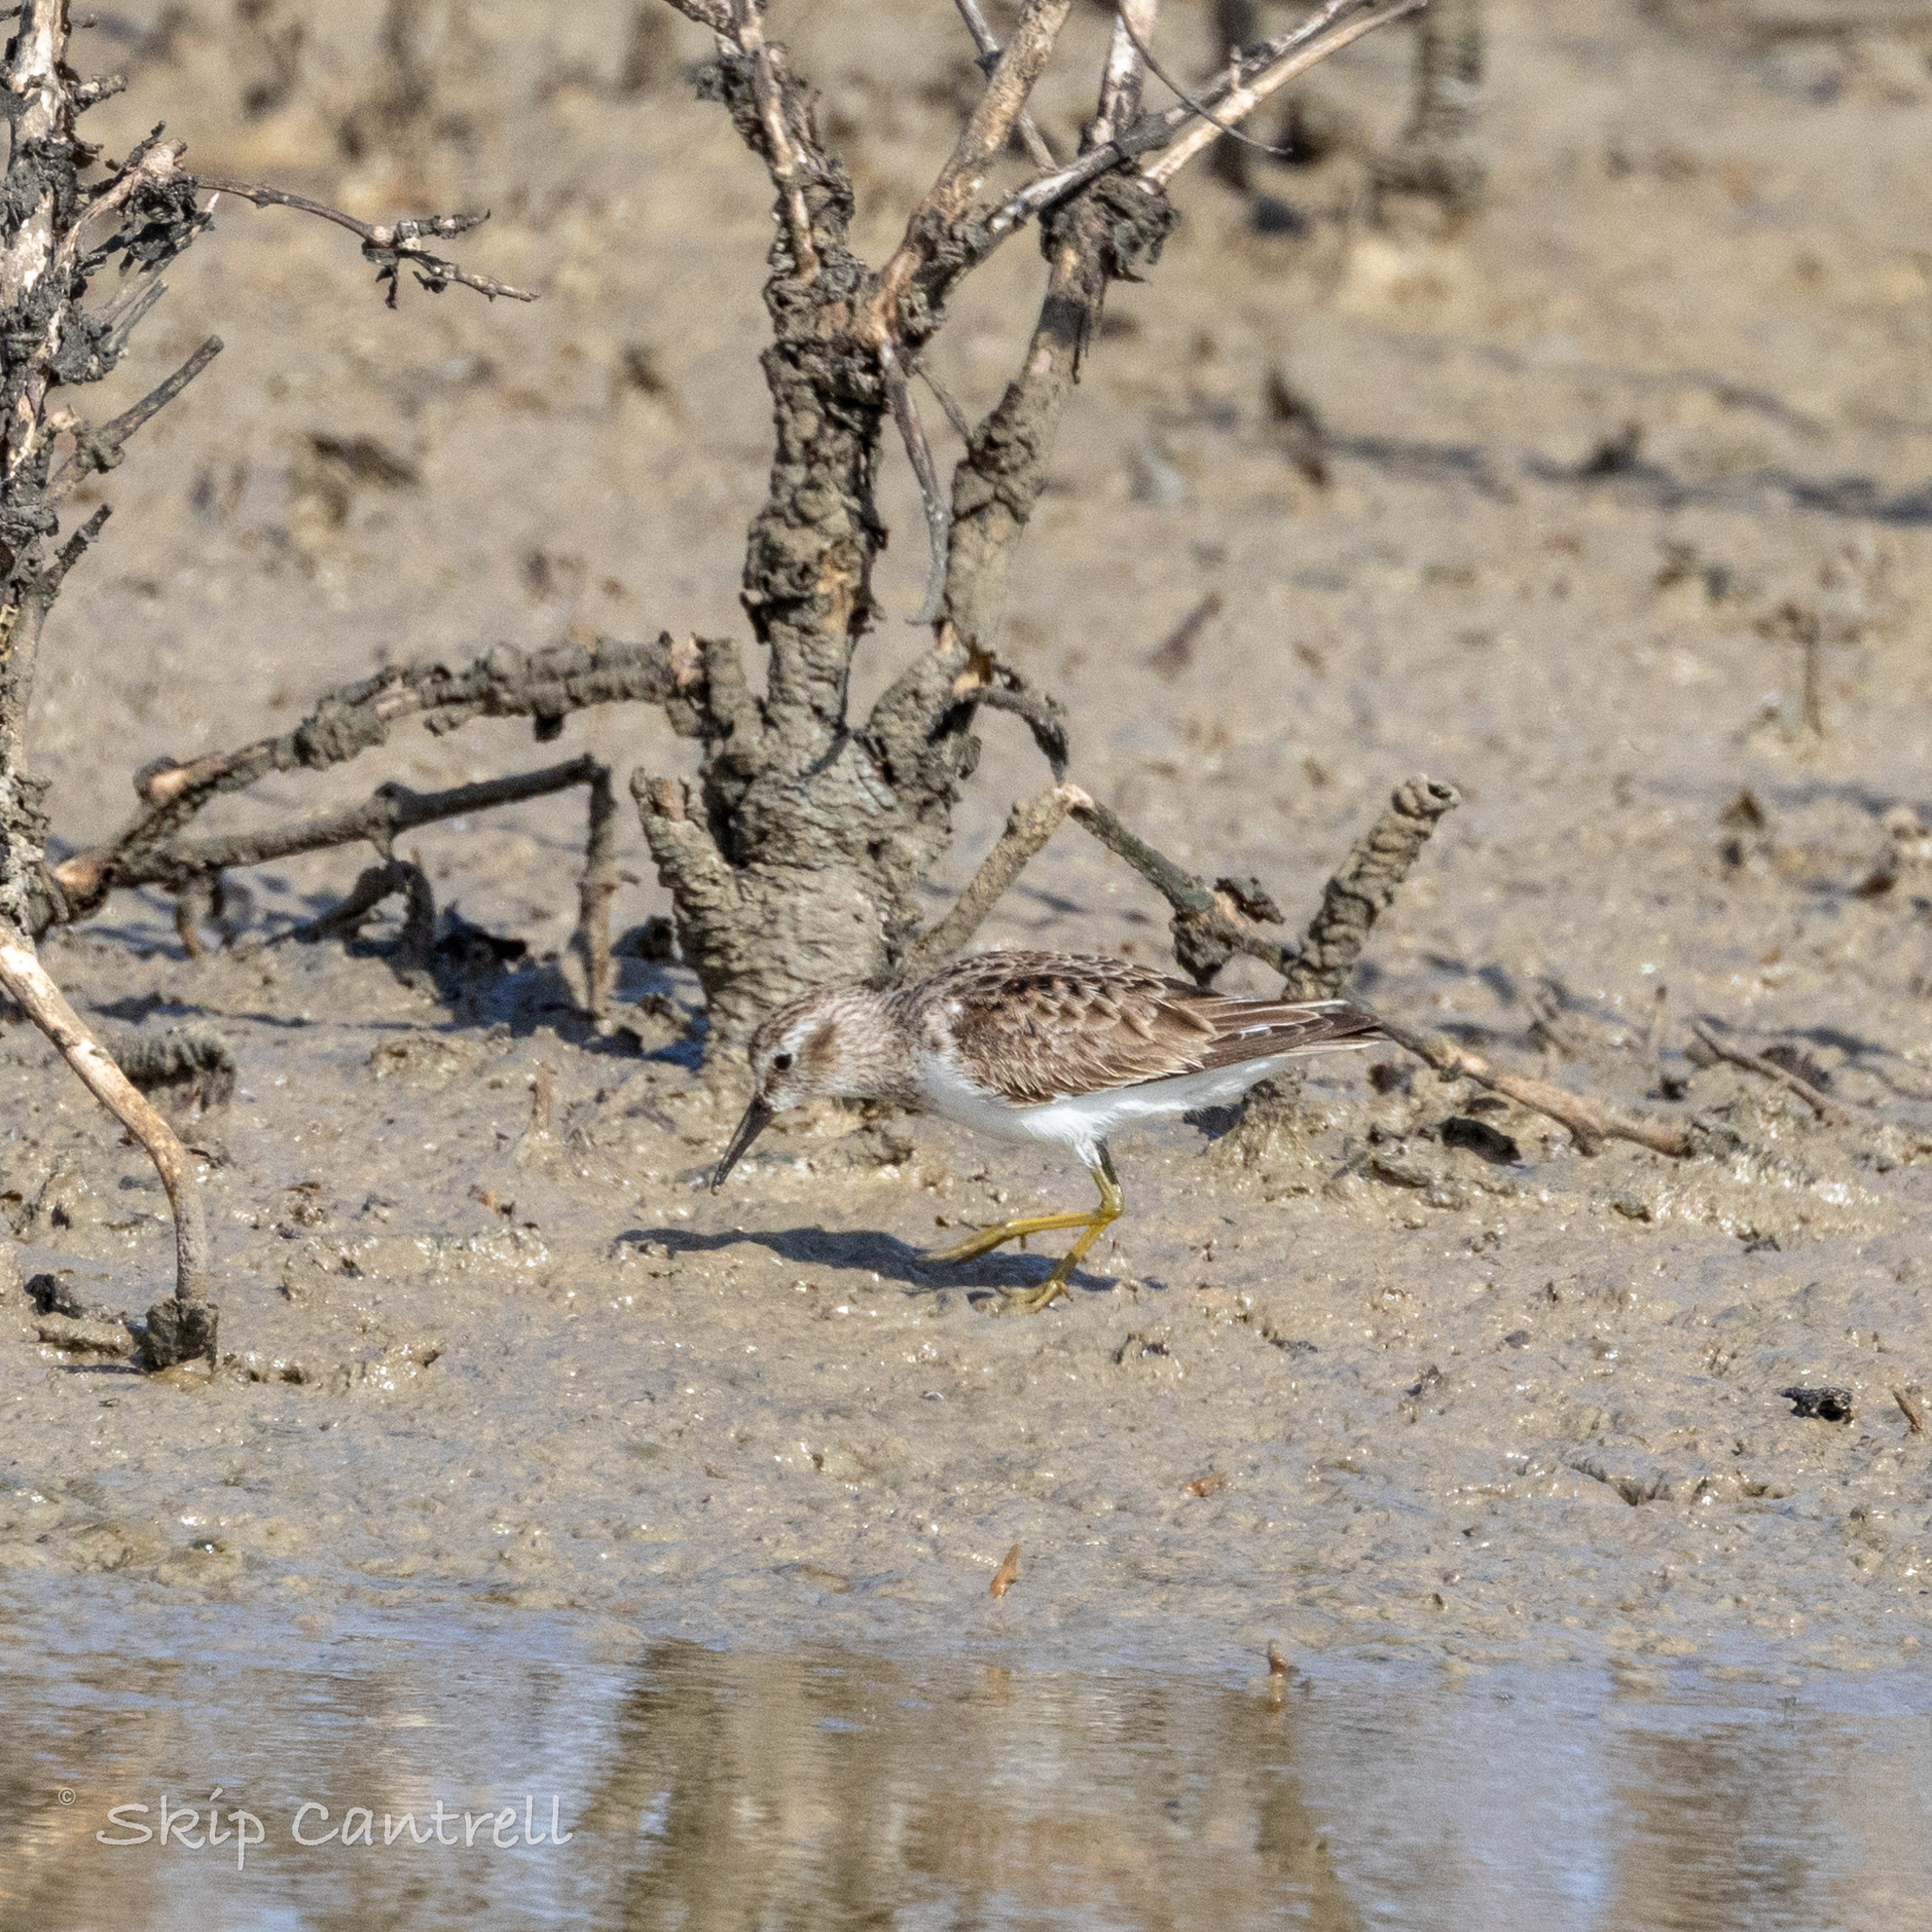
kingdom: Animalia
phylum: Chordata
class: Aves
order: Charadriiformes
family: Scolopacidae
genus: Calidris
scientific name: Calidris minutilla
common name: Least sandpiper
